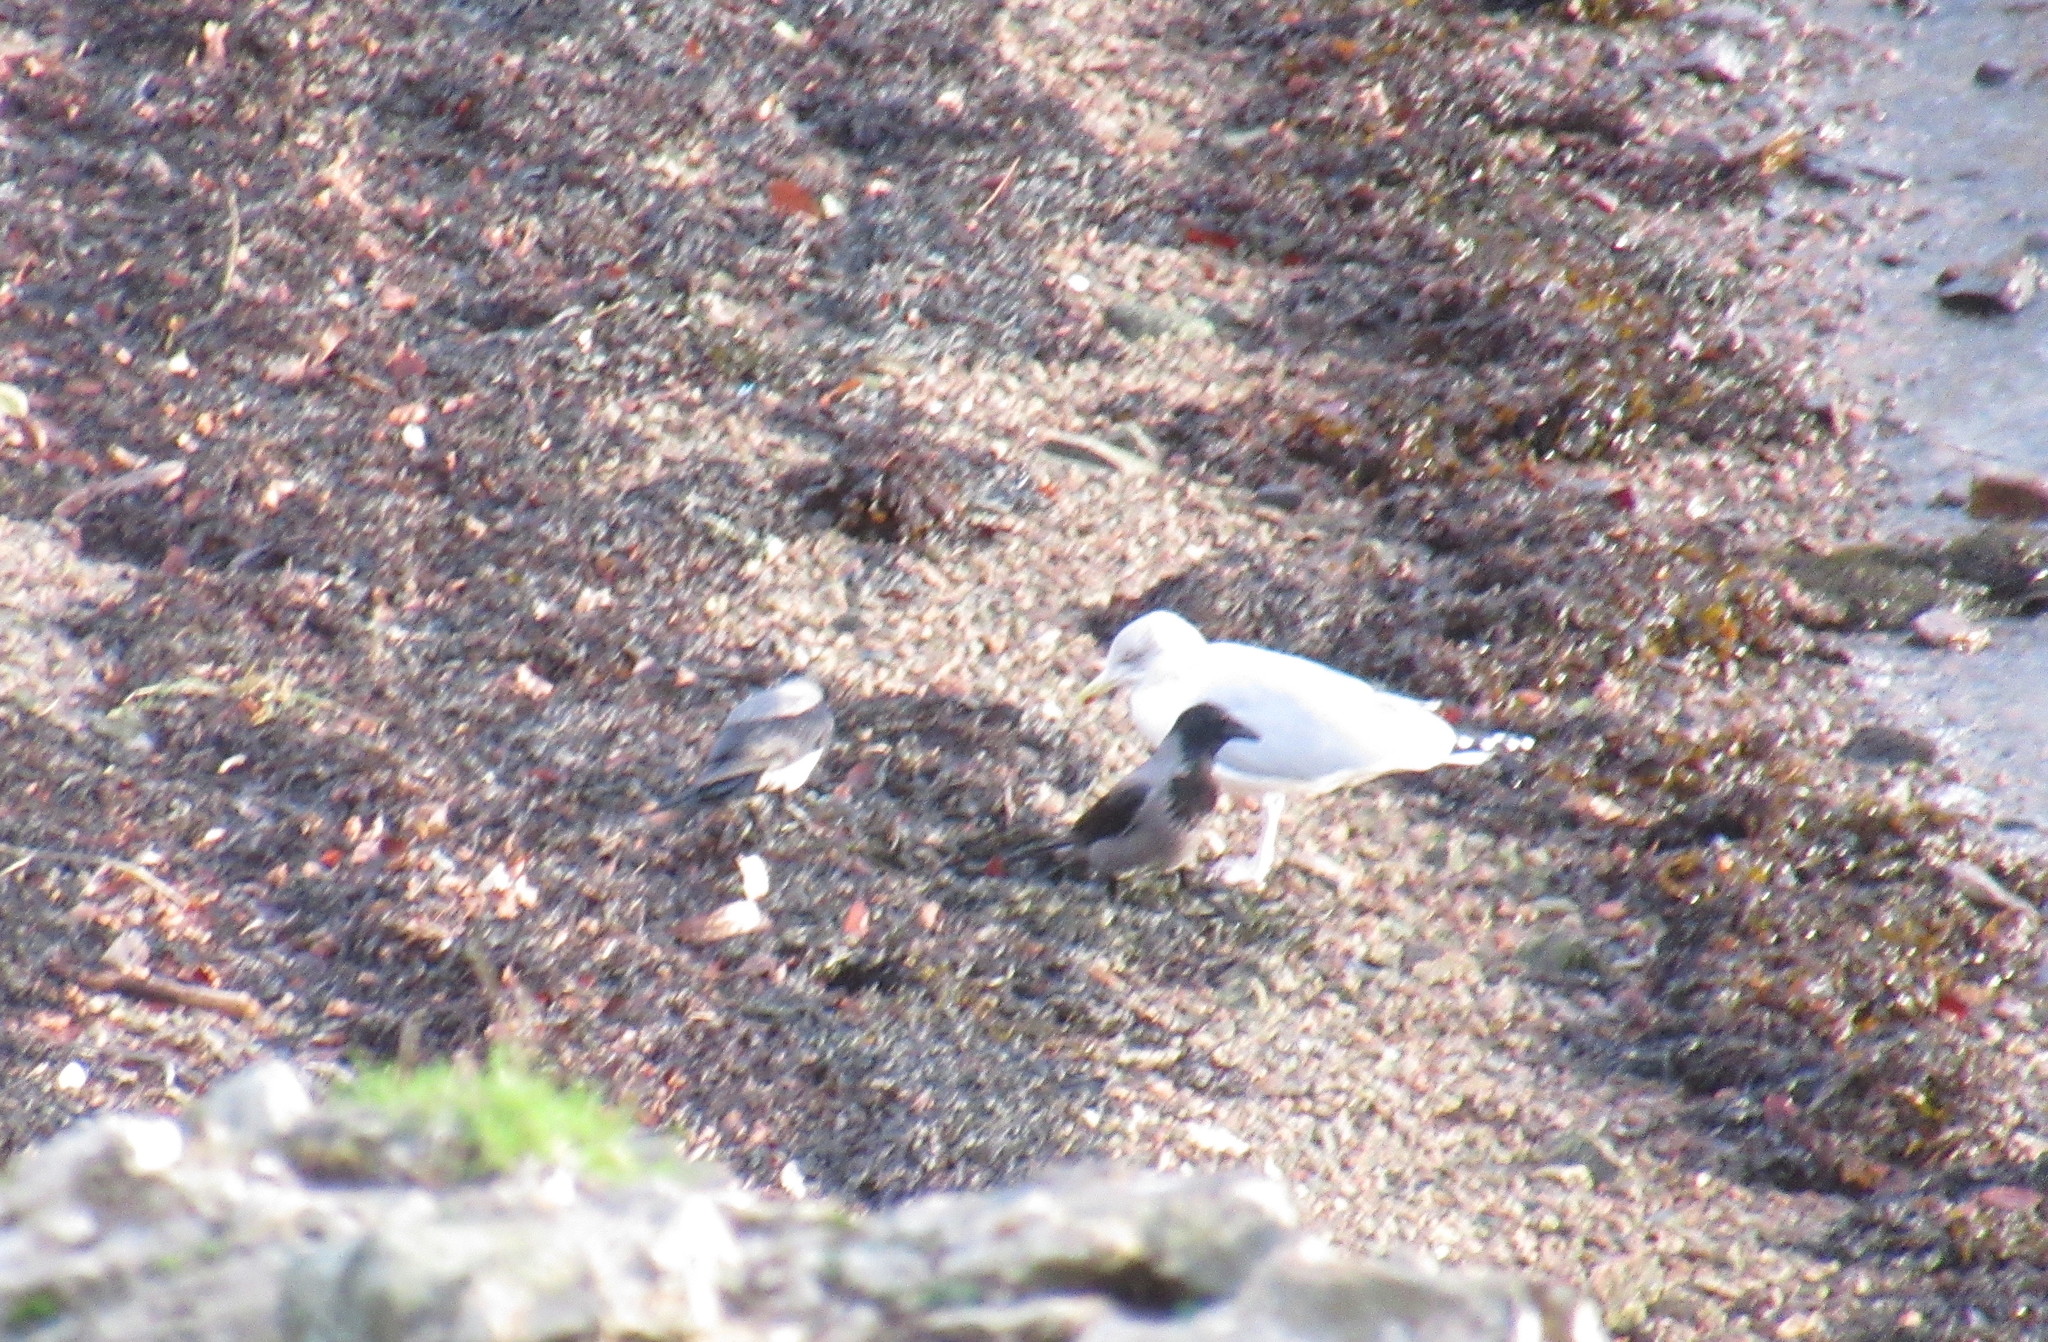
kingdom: Animalia
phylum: Chordata
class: Aves
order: Passeriformes
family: Corvidae
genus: Corvus
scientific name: Corvus cornix
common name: Hooded crow
